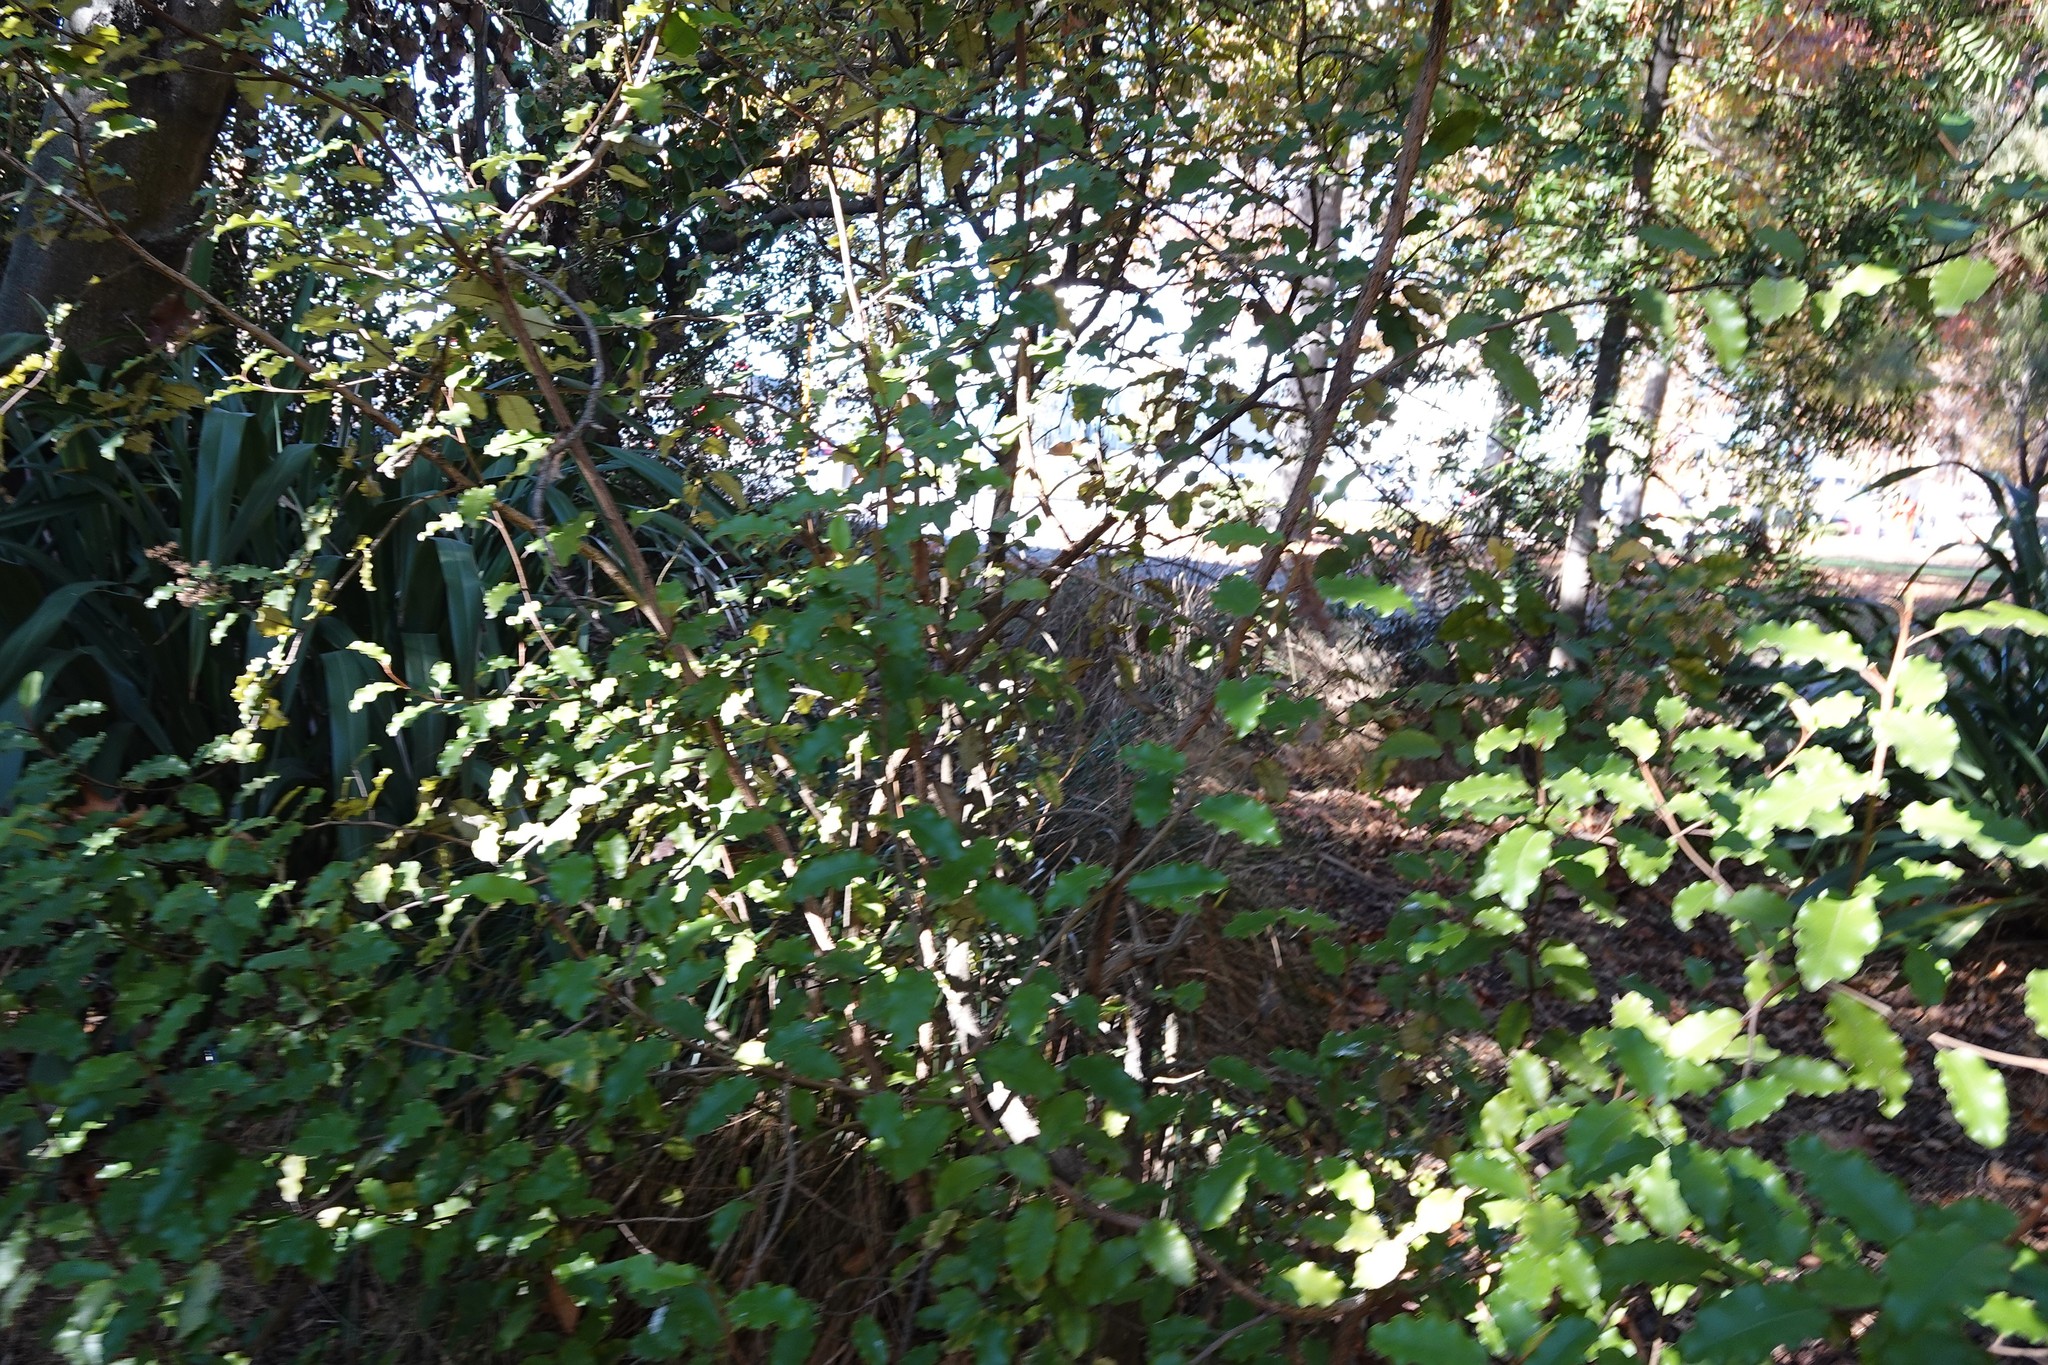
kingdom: Plantae
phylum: Tracheophyta
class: Magnoliopsida
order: Asterales
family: Asteraceae
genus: Olearia
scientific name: Olearia paniculata
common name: Akiraho
